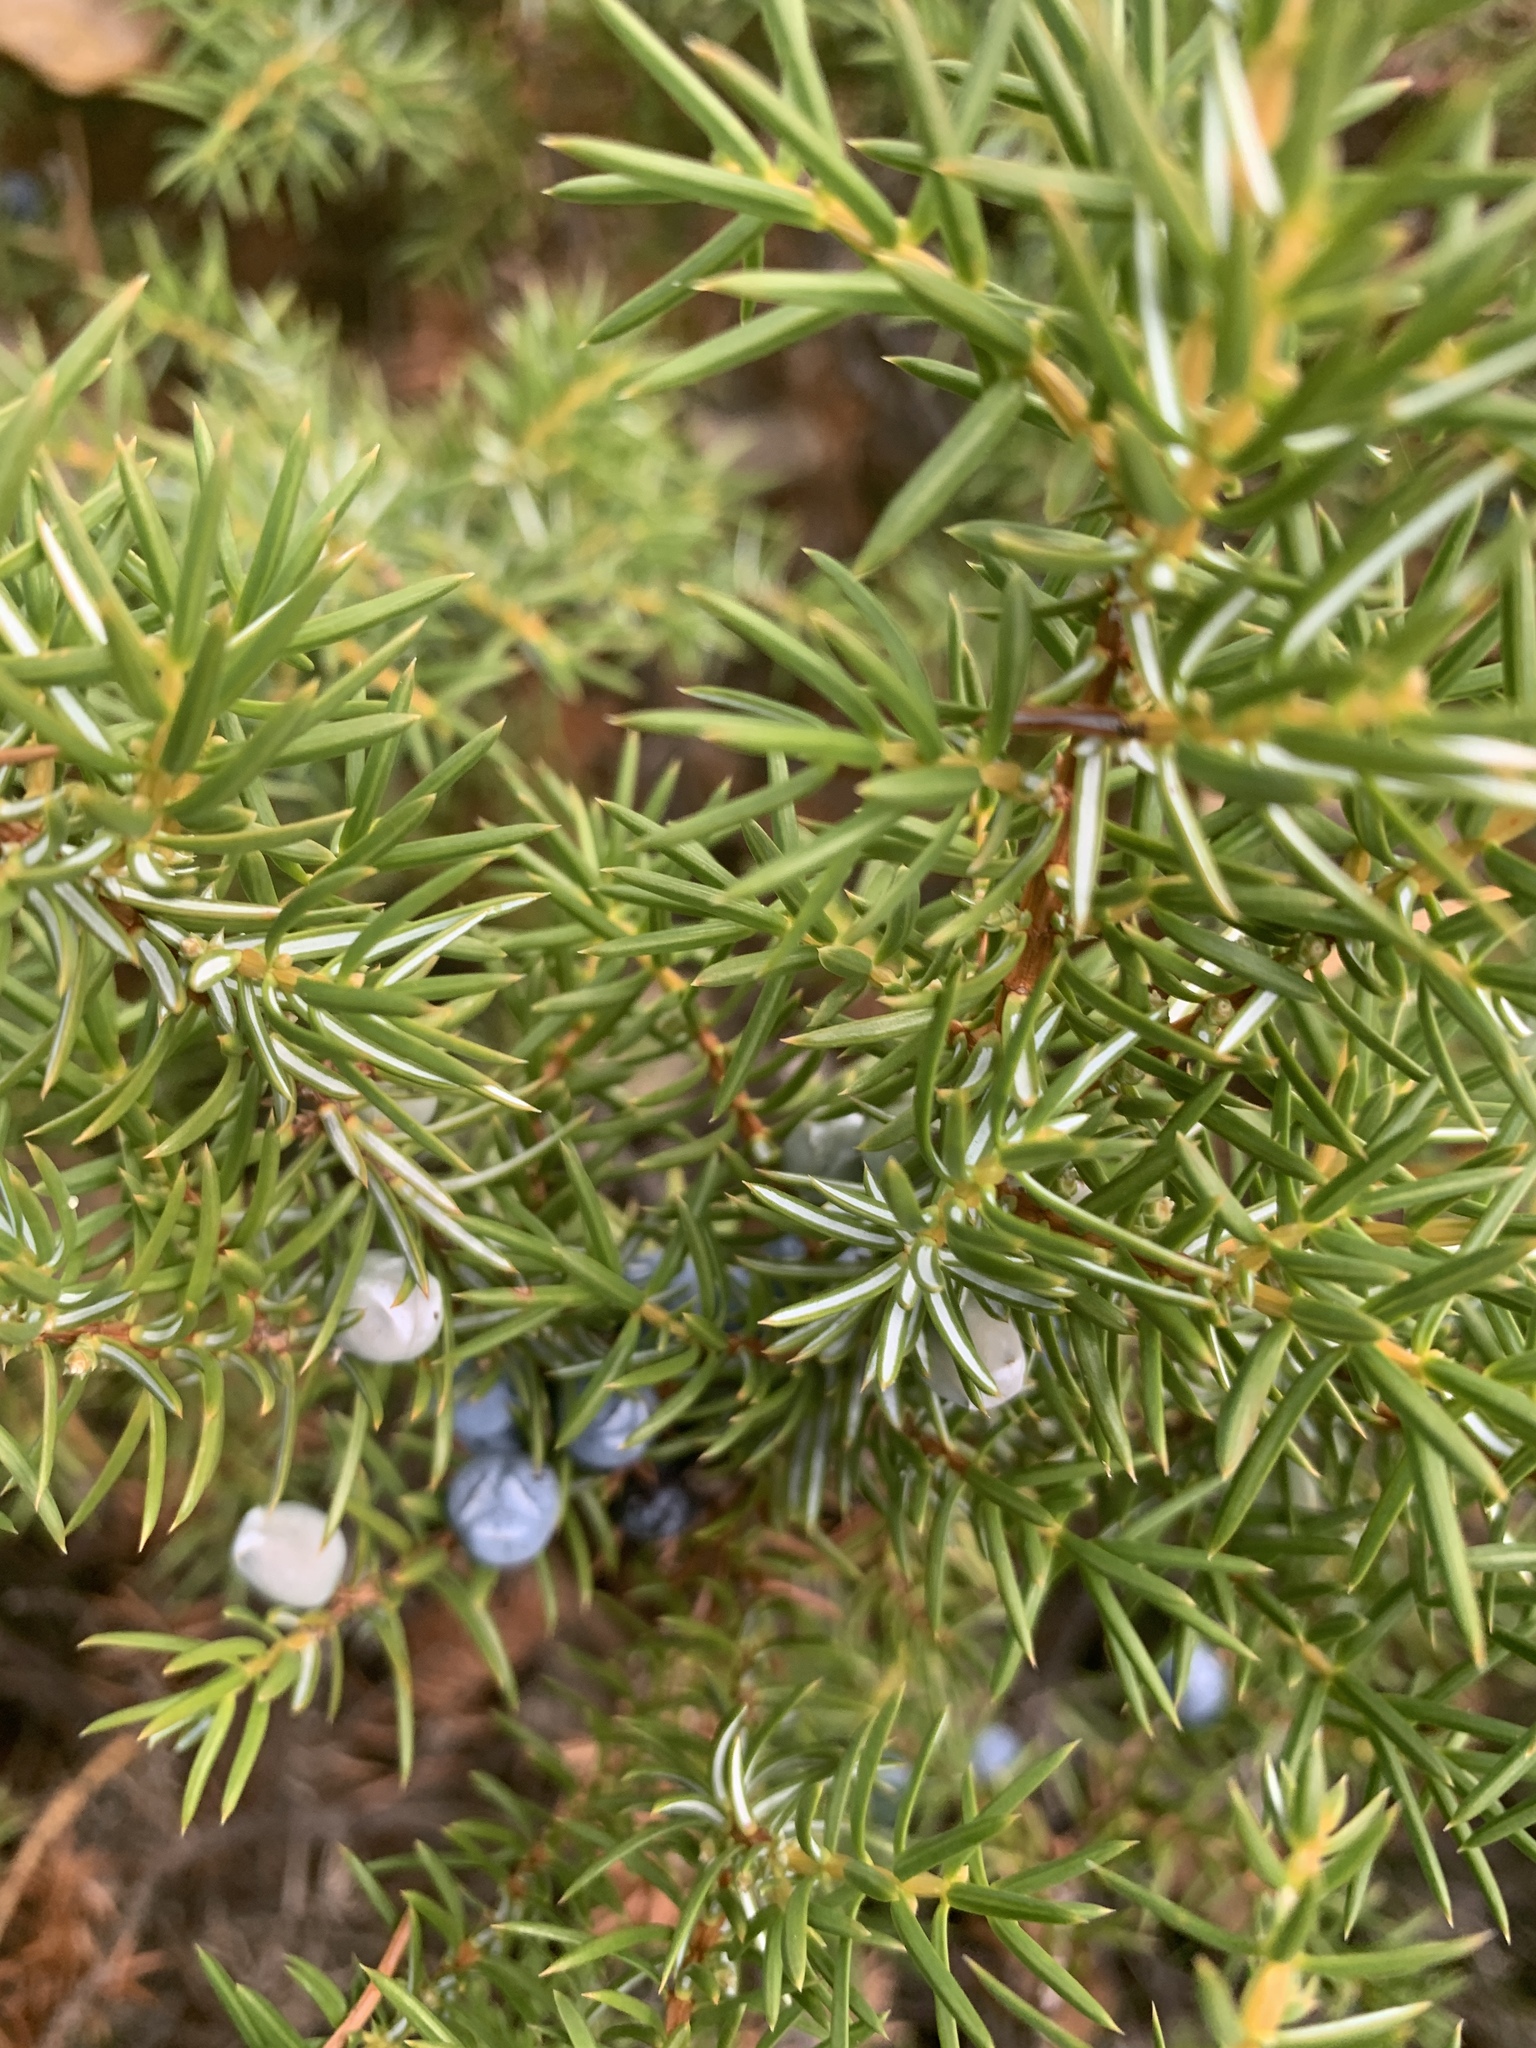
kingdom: Plantae
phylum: Tracheophyta
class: Pinopsida
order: Pinales
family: Cupressaceae
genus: Juniperus
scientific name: Juniperus communis
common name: Common juniper
